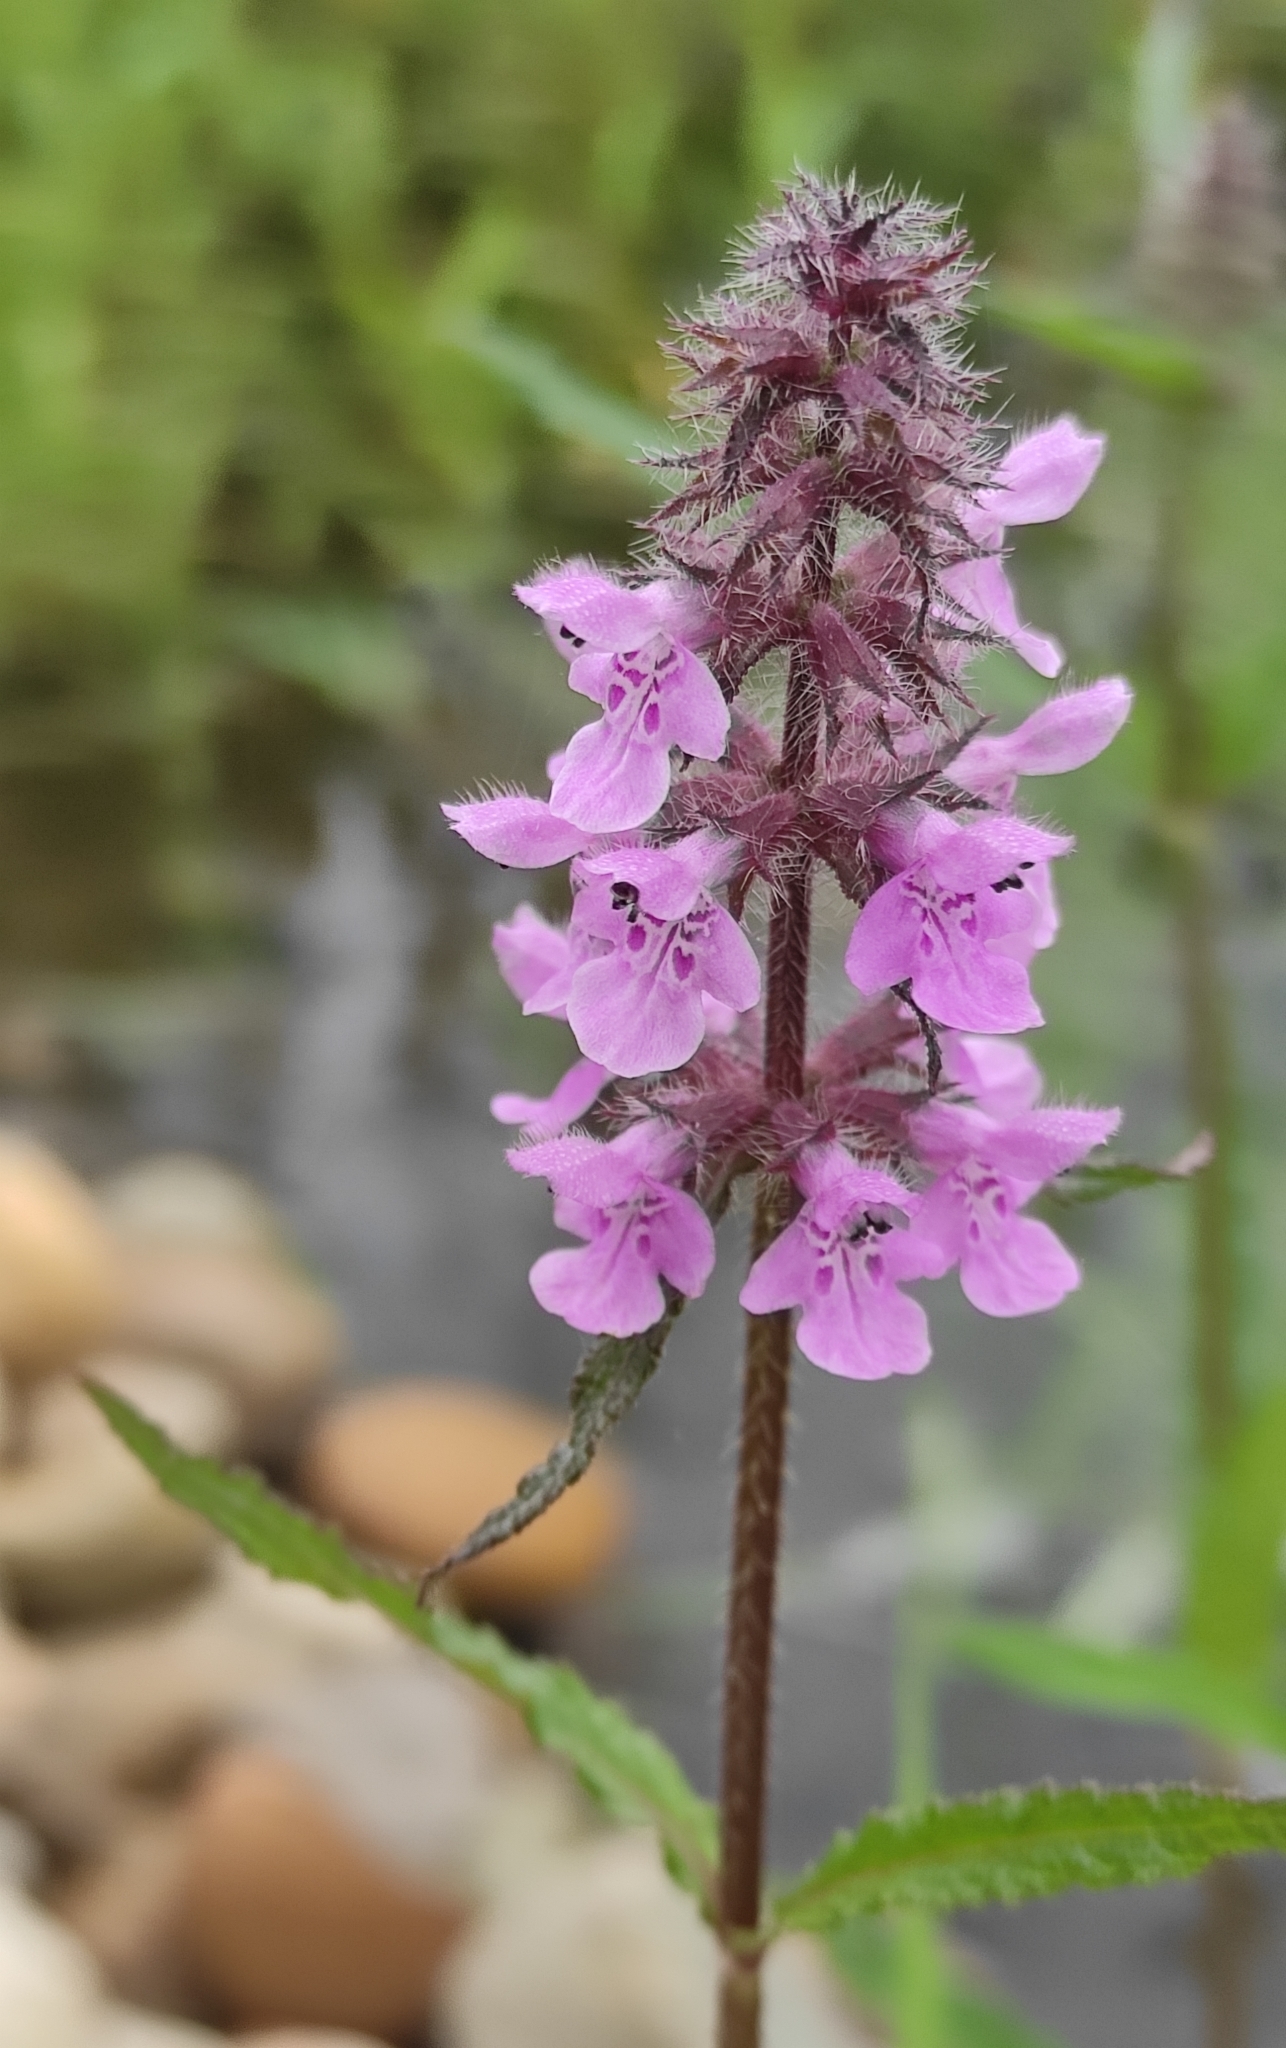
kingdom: Plantae
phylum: Tracheophyta
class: Magnoliopsida
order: Lamiales
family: Lamiaceae
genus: Stachys
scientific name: Stachys palustris
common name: Marsh woundwort
